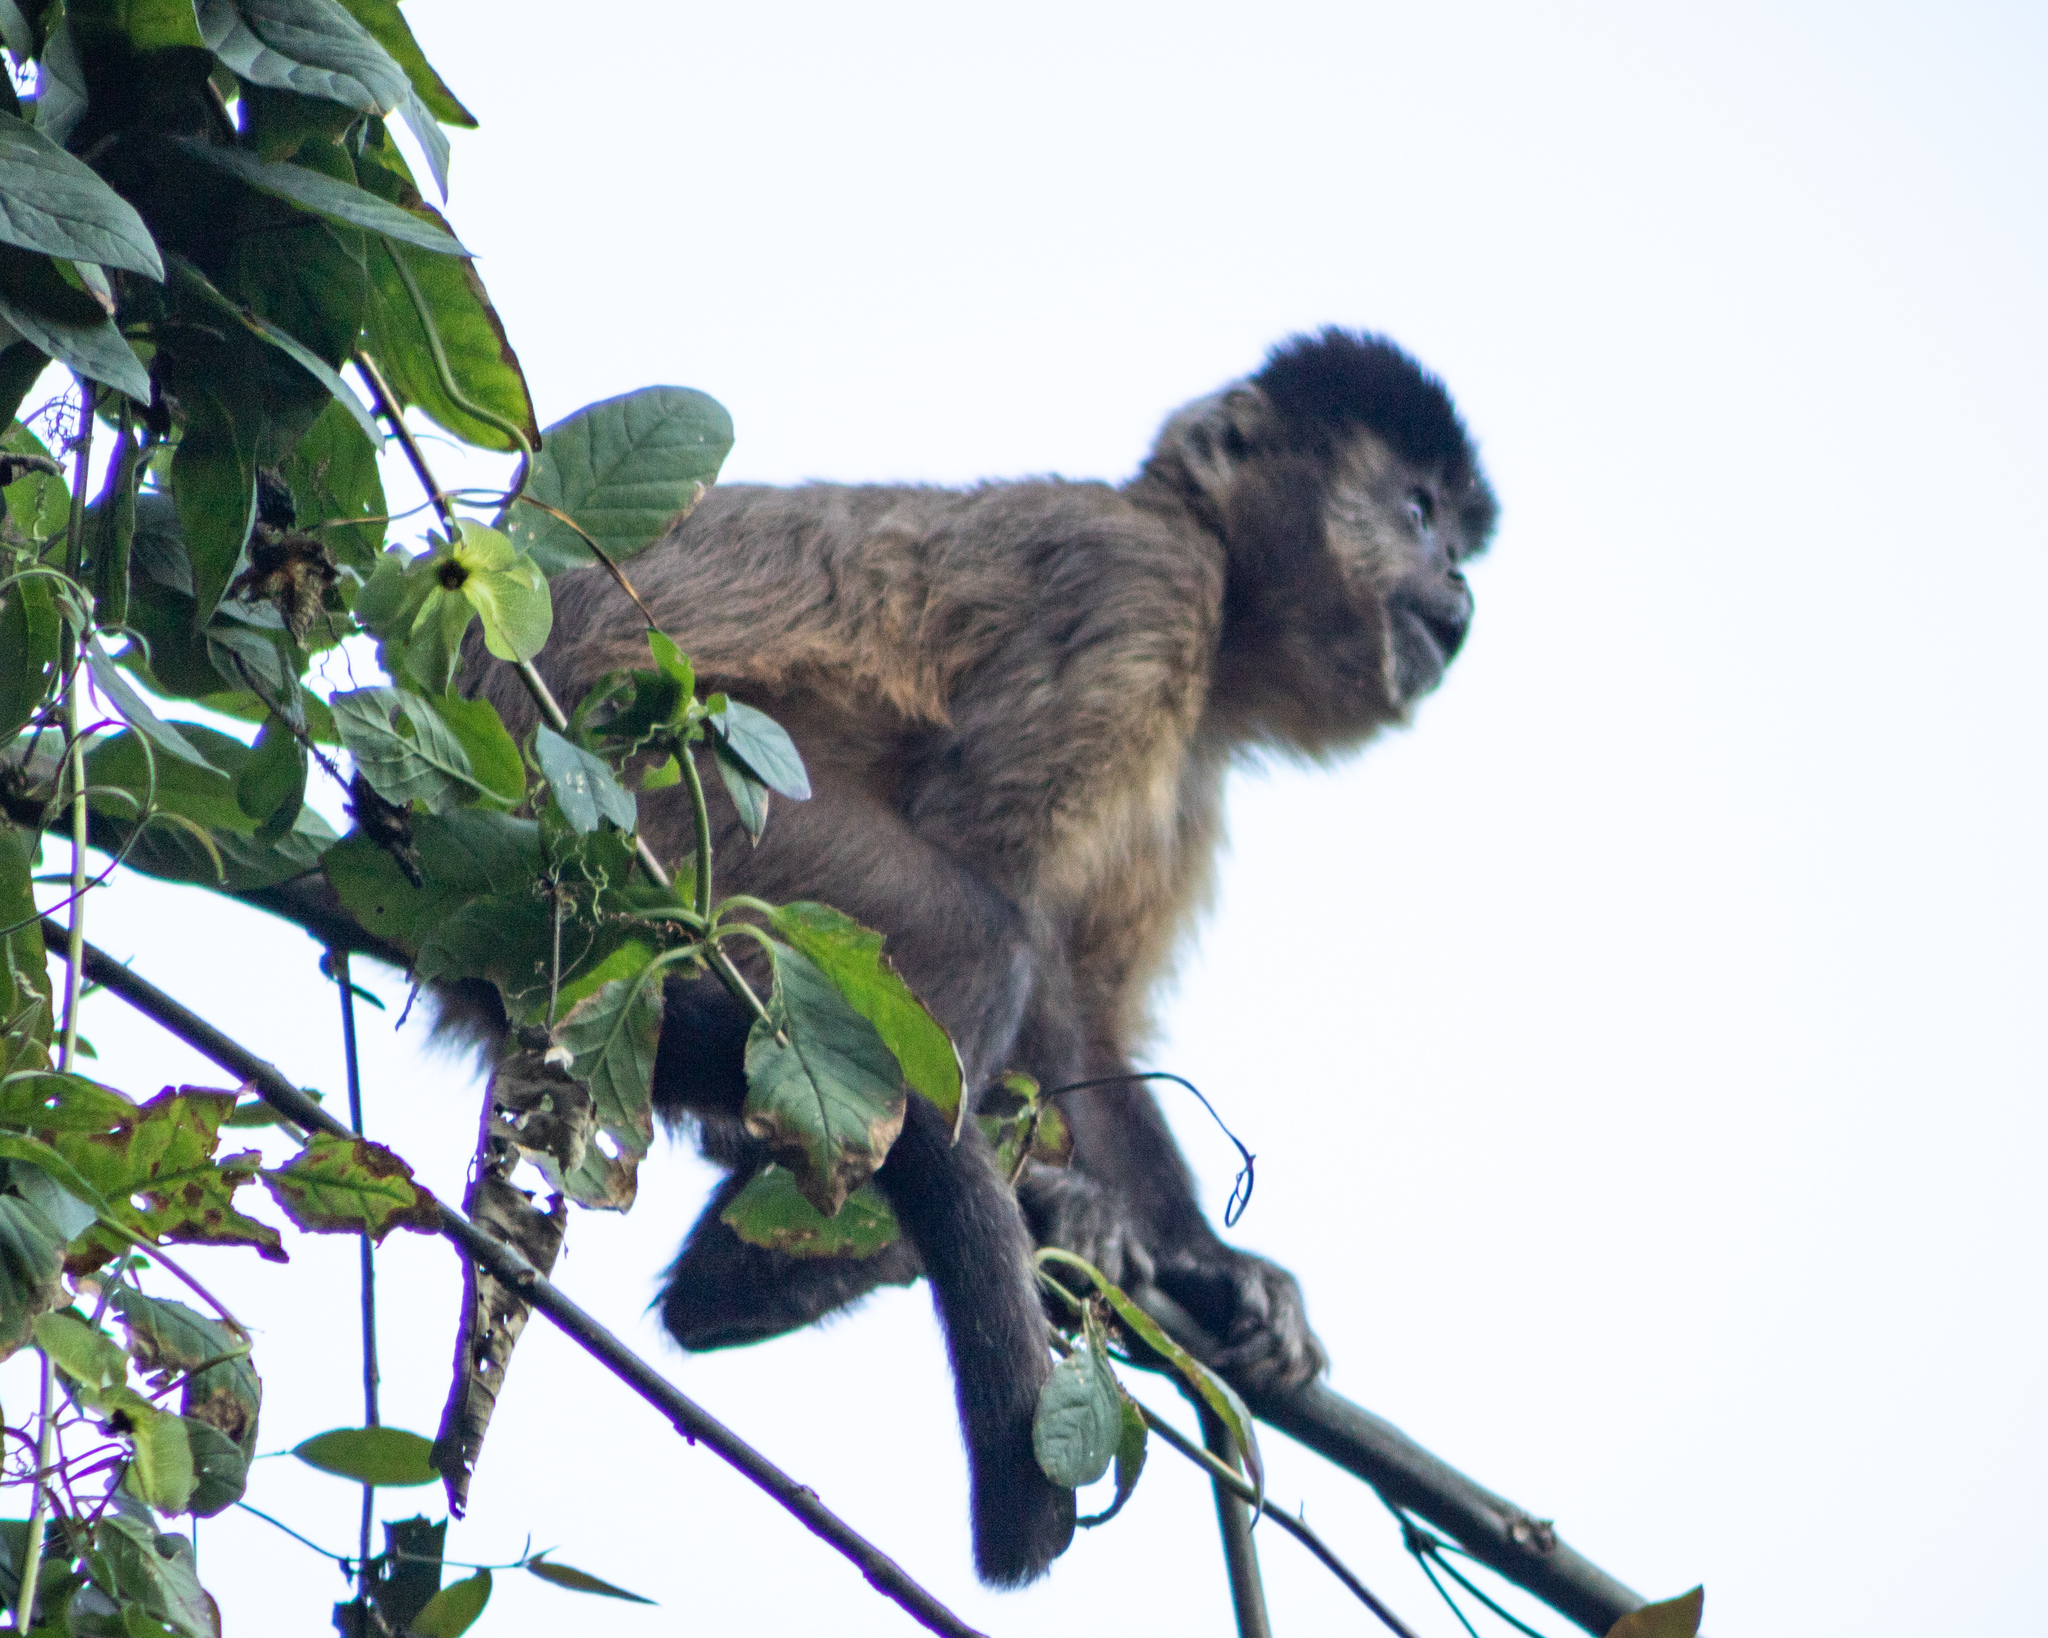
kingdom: Animalia
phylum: Chordata
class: Mammalia
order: Primates
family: Cebidae
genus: Sapajus
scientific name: Sapajus nigritus
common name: Black capuchin
